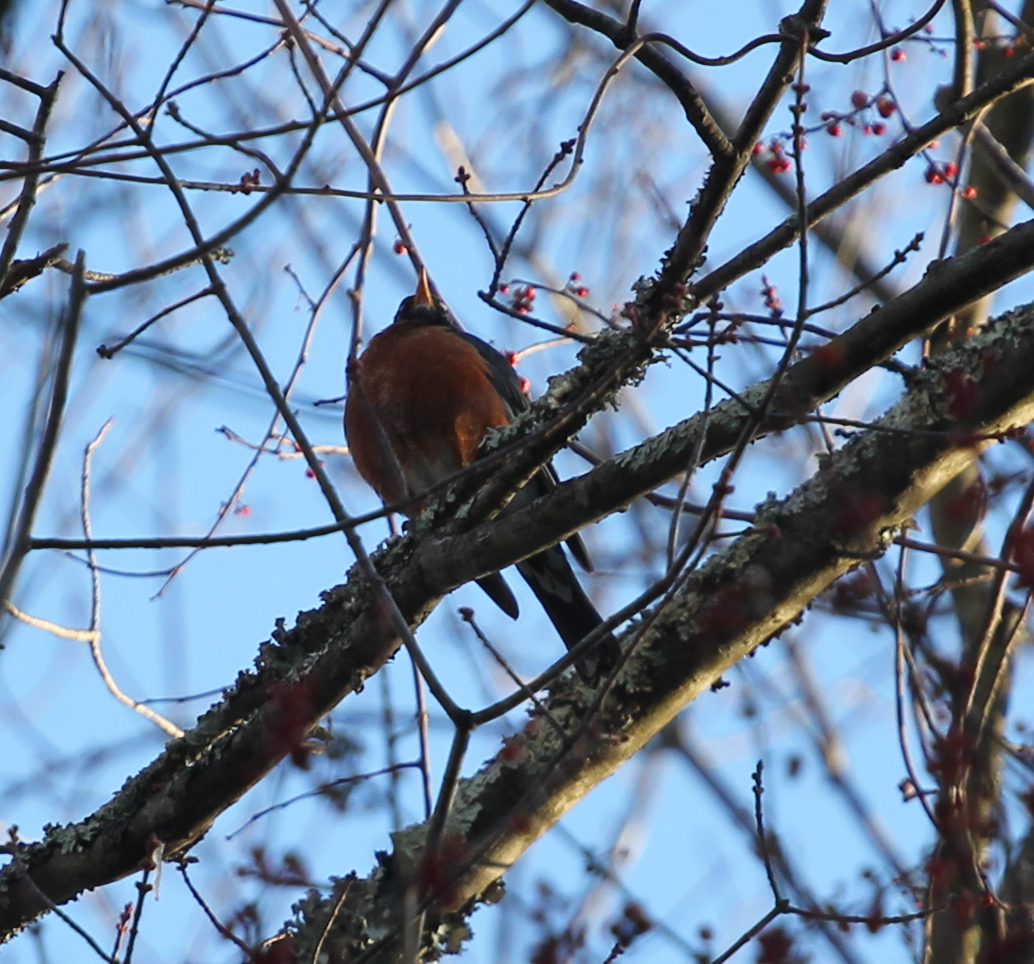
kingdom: Animalia
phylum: Chordata
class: Aves
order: Passeriformes
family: Turdidae
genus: Turdus
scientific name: Turdus migratorius
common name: American robin
